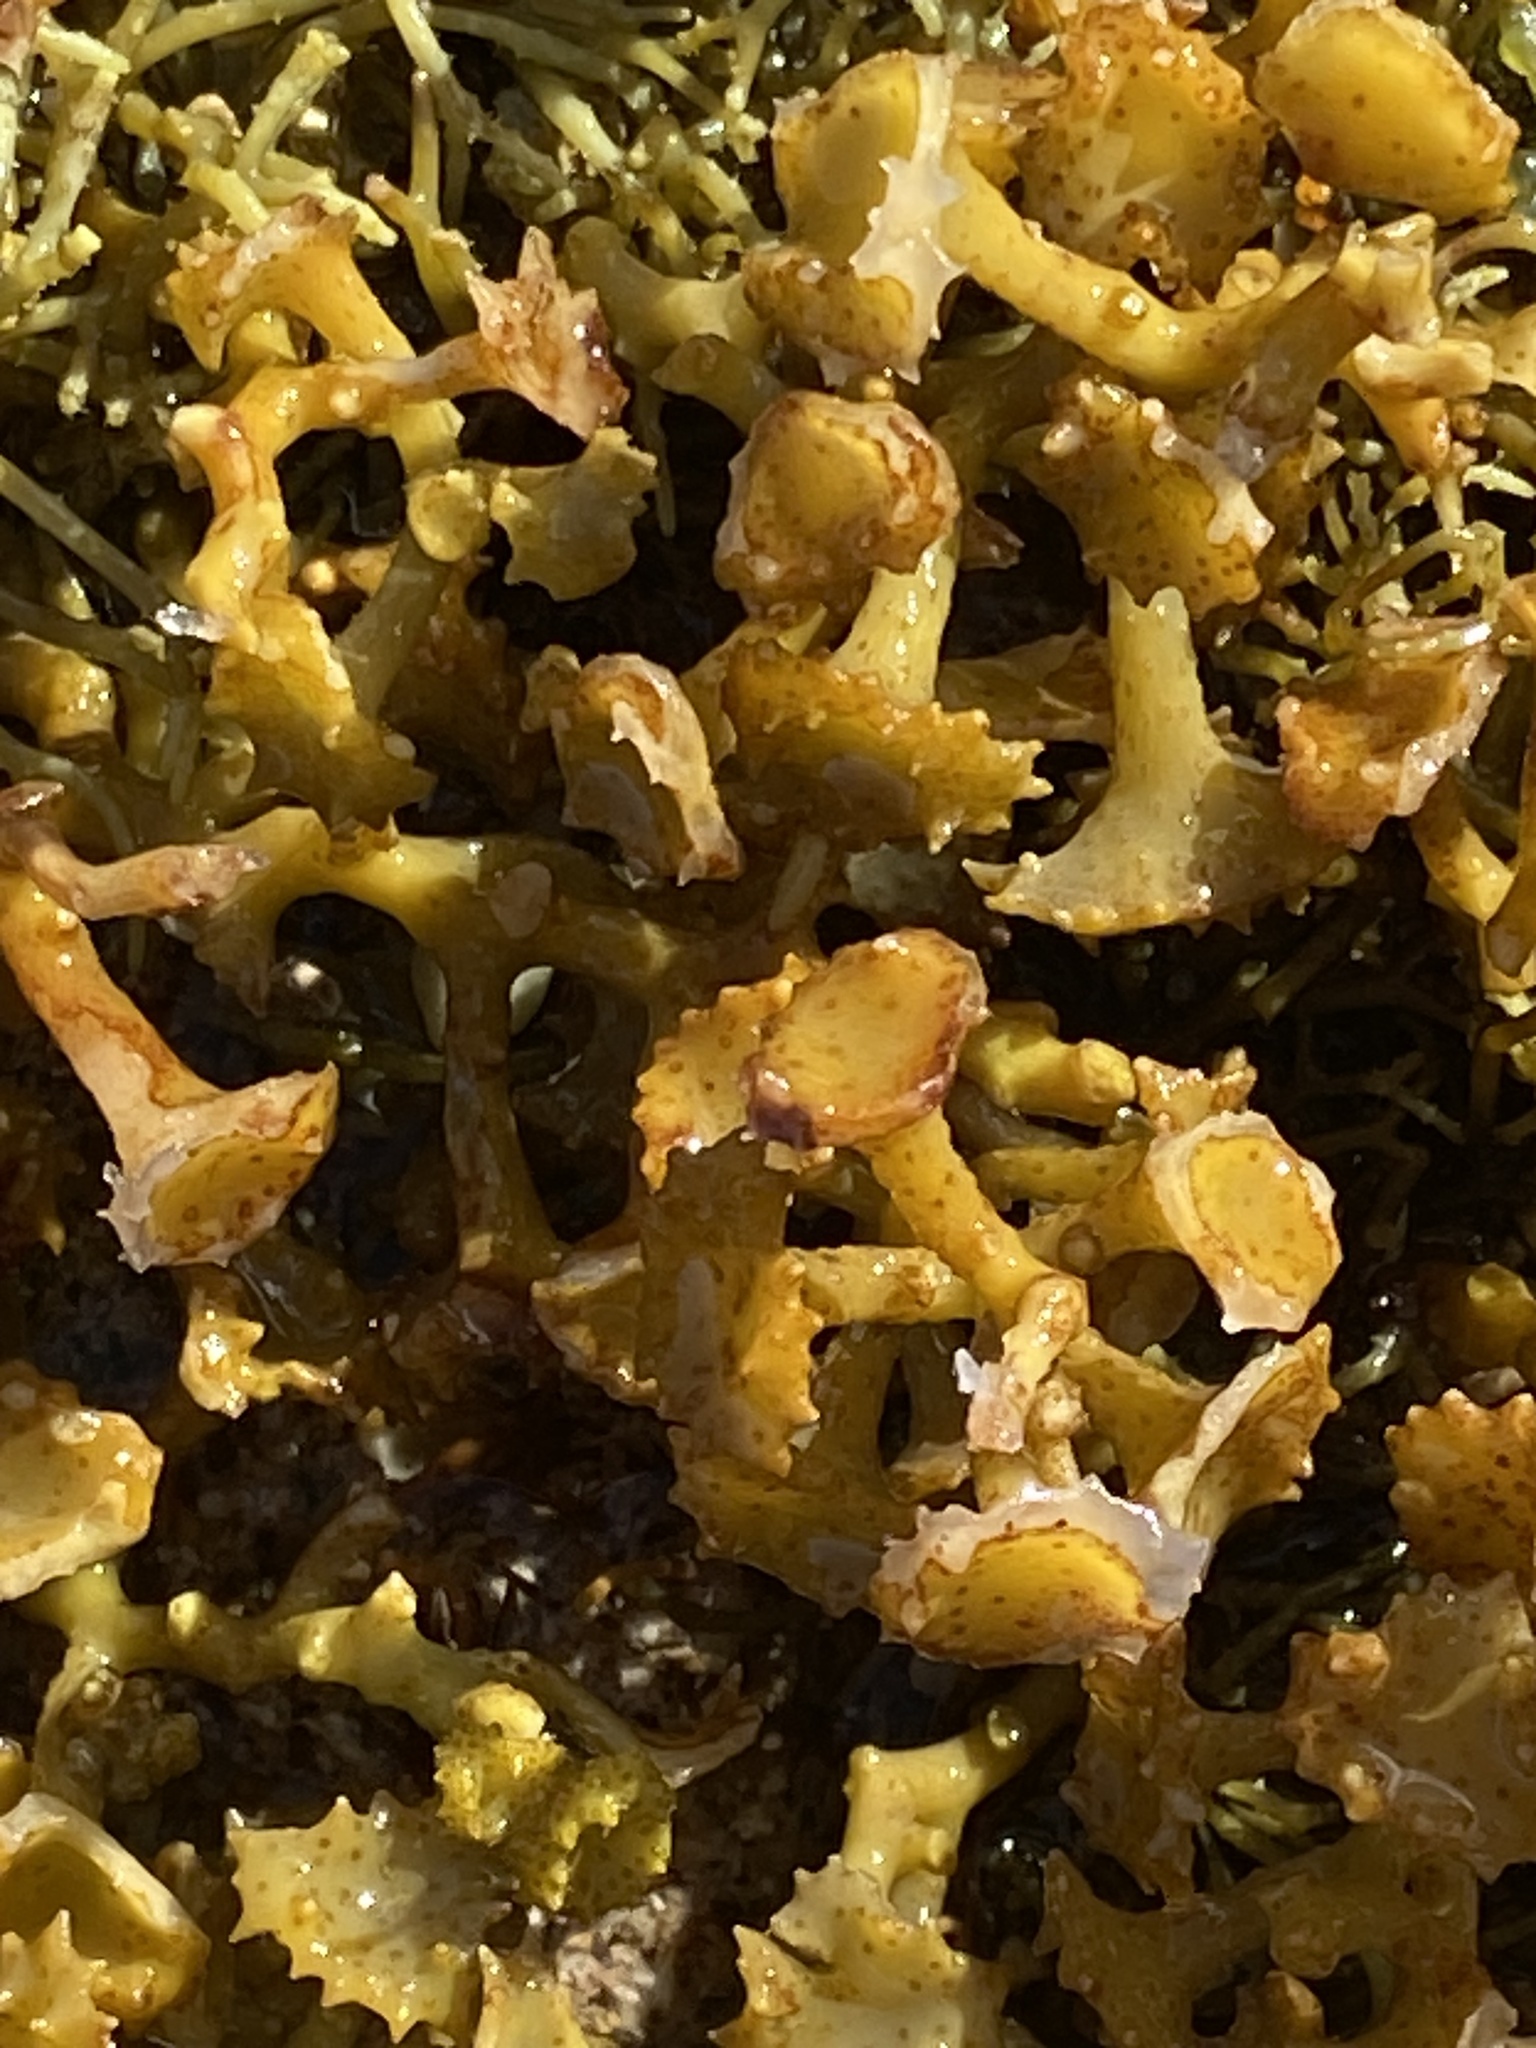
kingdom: Chromista
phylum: Ochrophyta
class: Phaeophyceae
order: Fucales
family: Sargassaceae
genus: Turbinaria
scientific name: Turbinaria ornata
